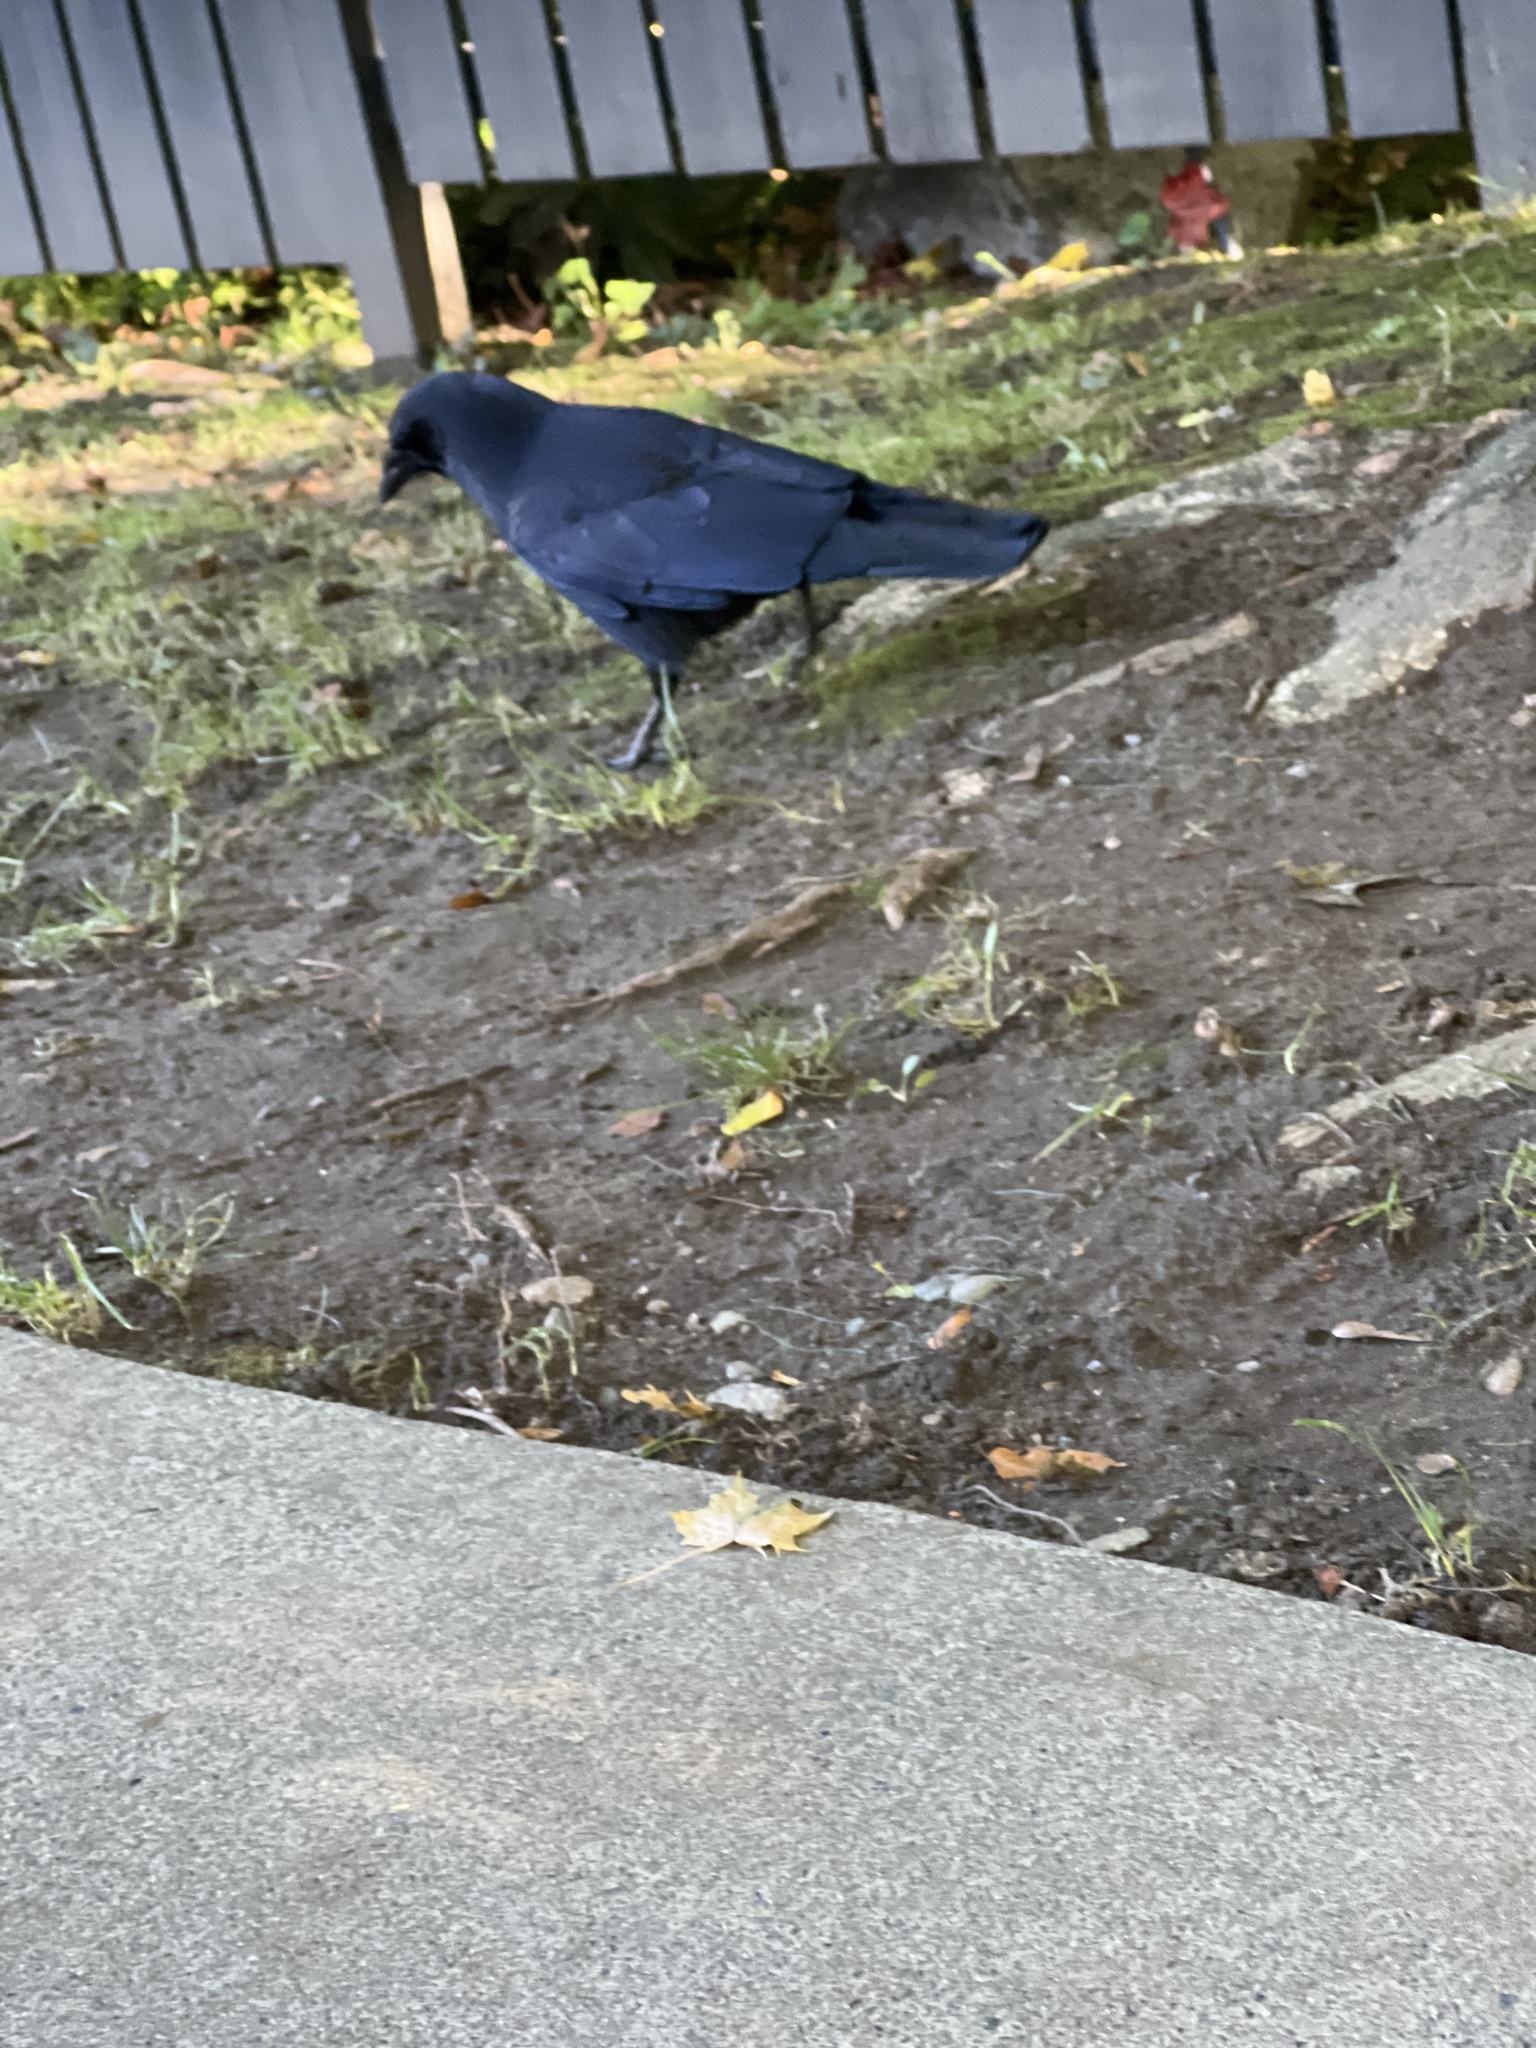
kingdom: Animalia
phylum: Chordata
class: Aves
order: Passeriformes
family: Corvidae
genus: Corvus
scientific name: Corvus brachyrhynchos
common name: American crow
